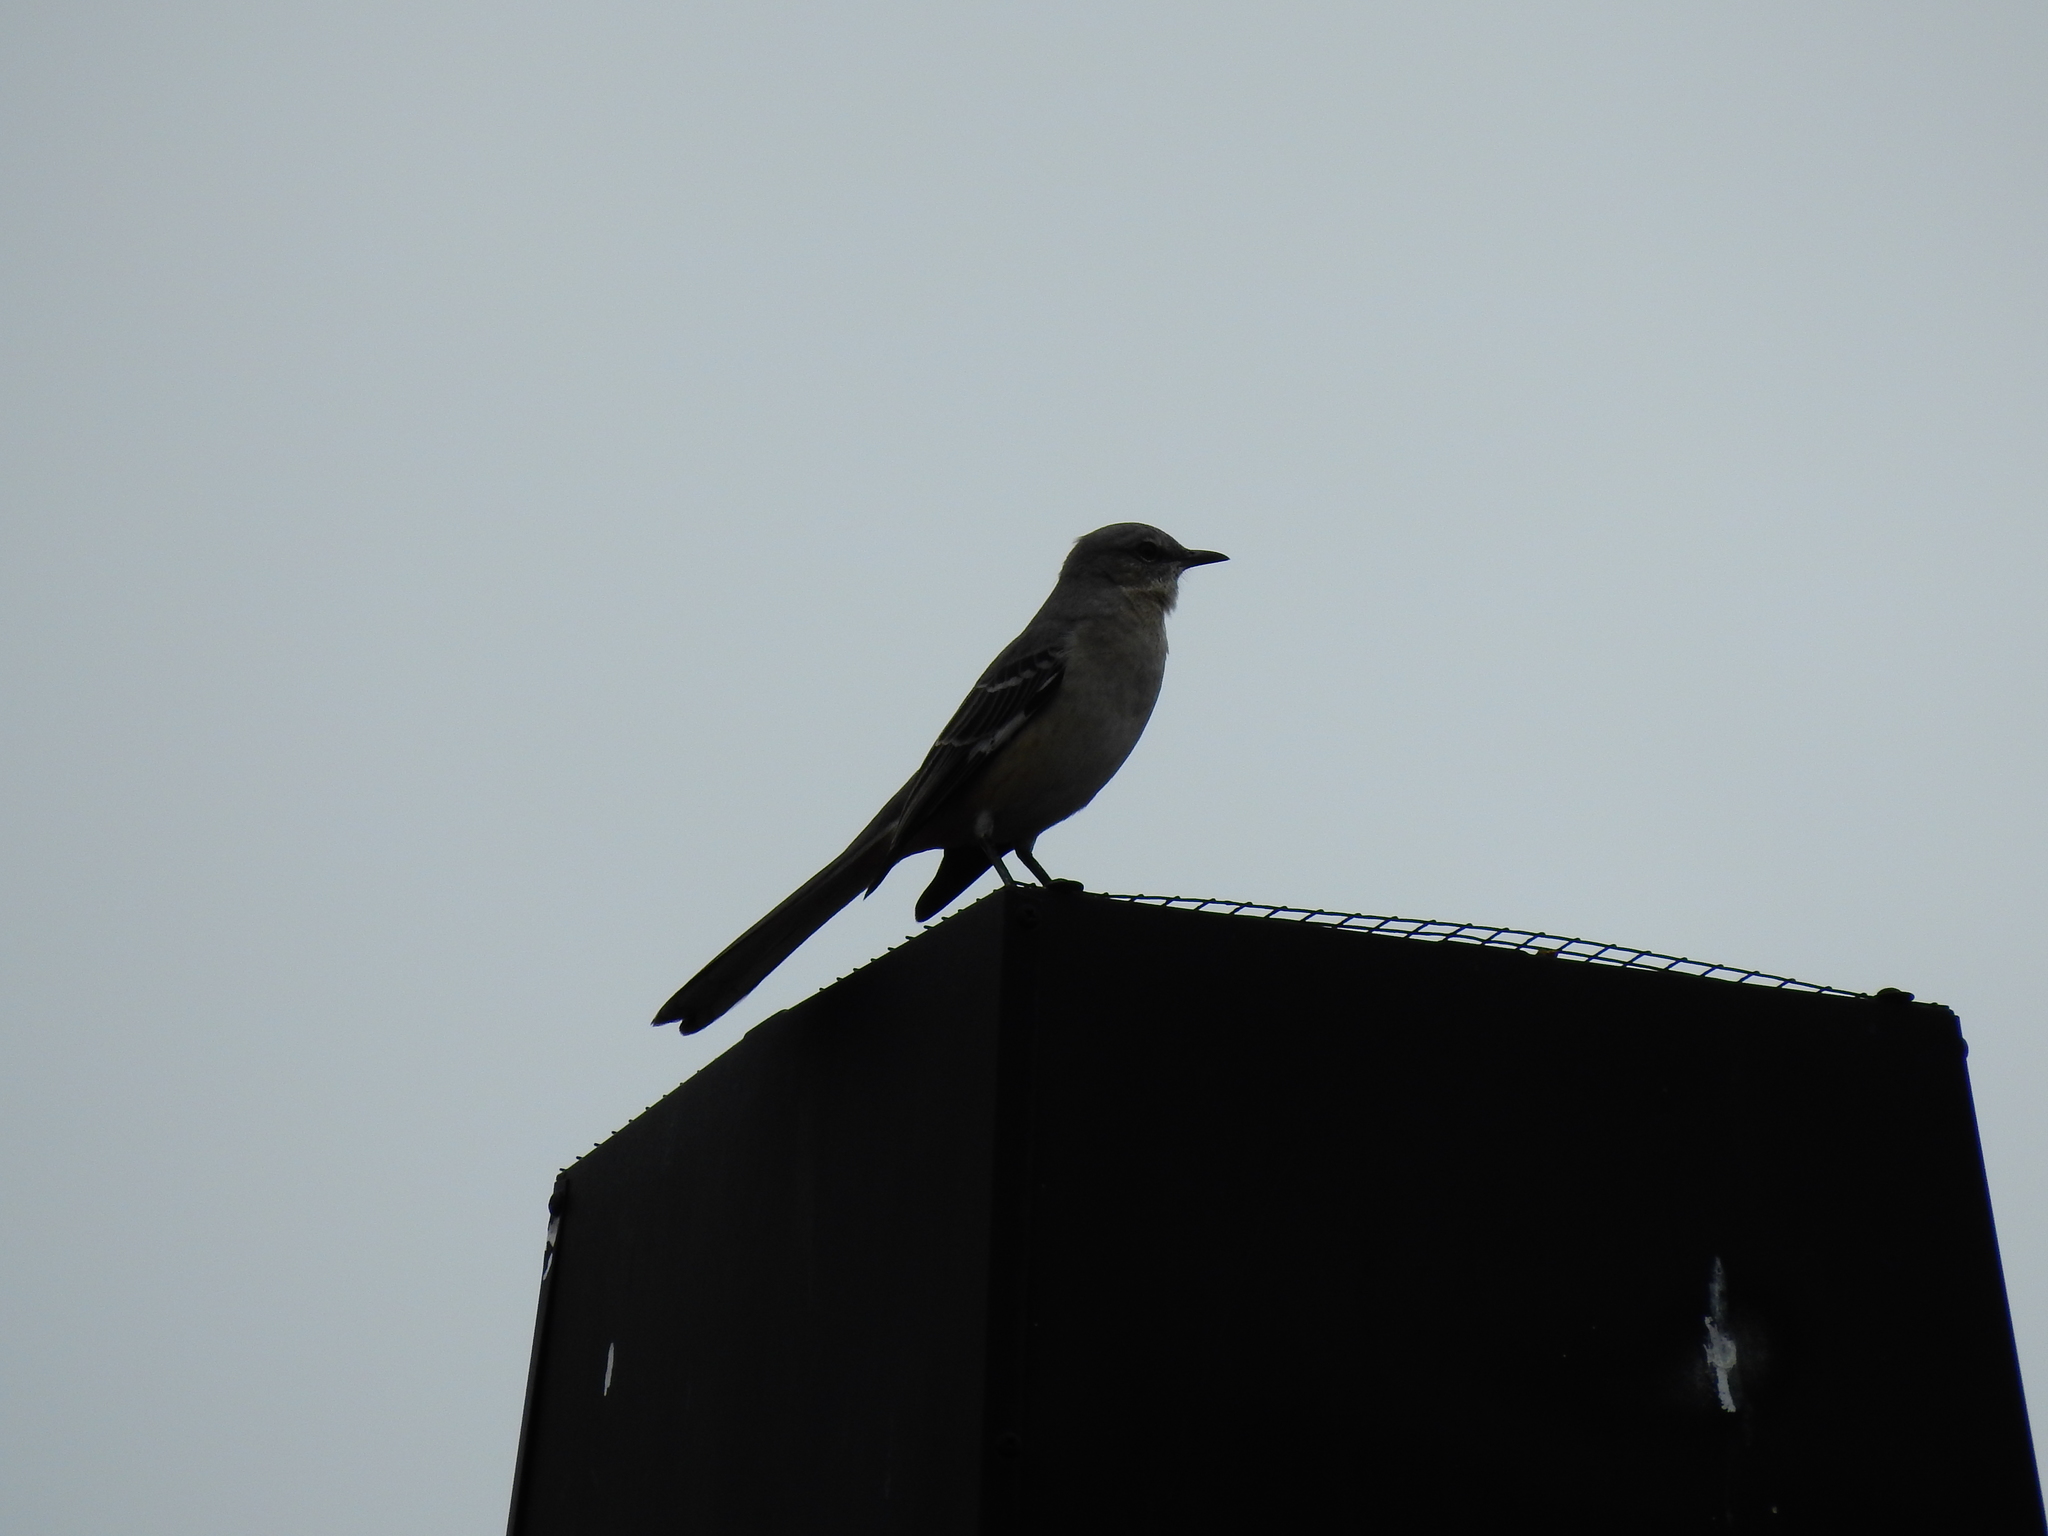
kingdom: Animalia
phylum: Chordata
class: Aves
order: Passeriformes
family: Mimidae
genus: Mimus
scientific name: Mimus polyglottos
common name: Northern mockingbird
